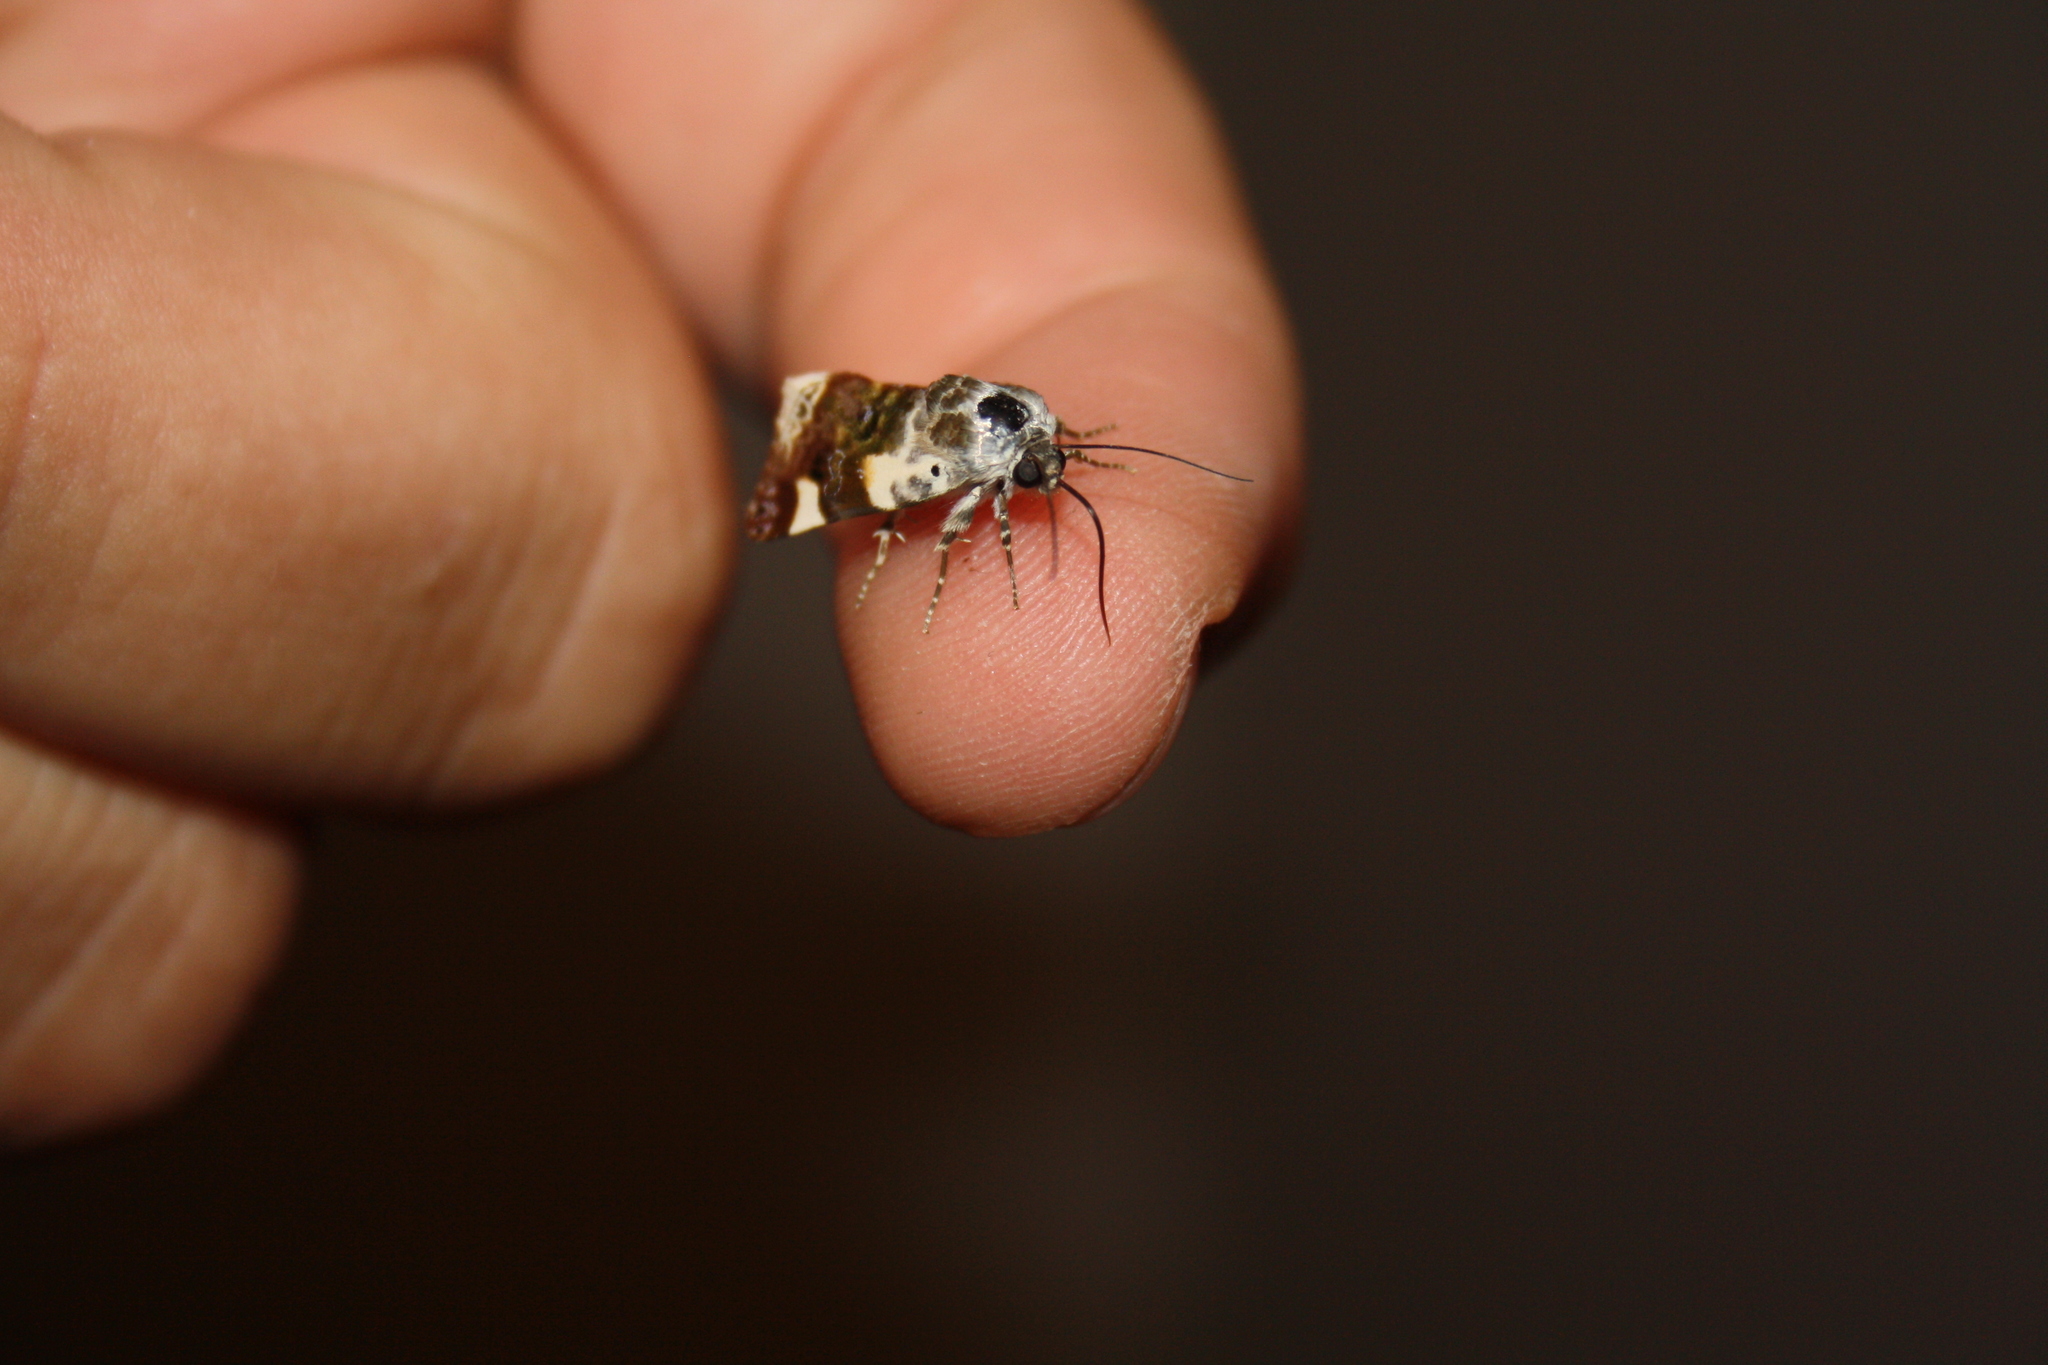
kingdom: Animalia
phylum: Arthropoda
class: Insecta
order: Lepidoptera
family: Noctuidae
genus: Acontia
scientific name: Acontia lucida
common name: Pale shoulder
